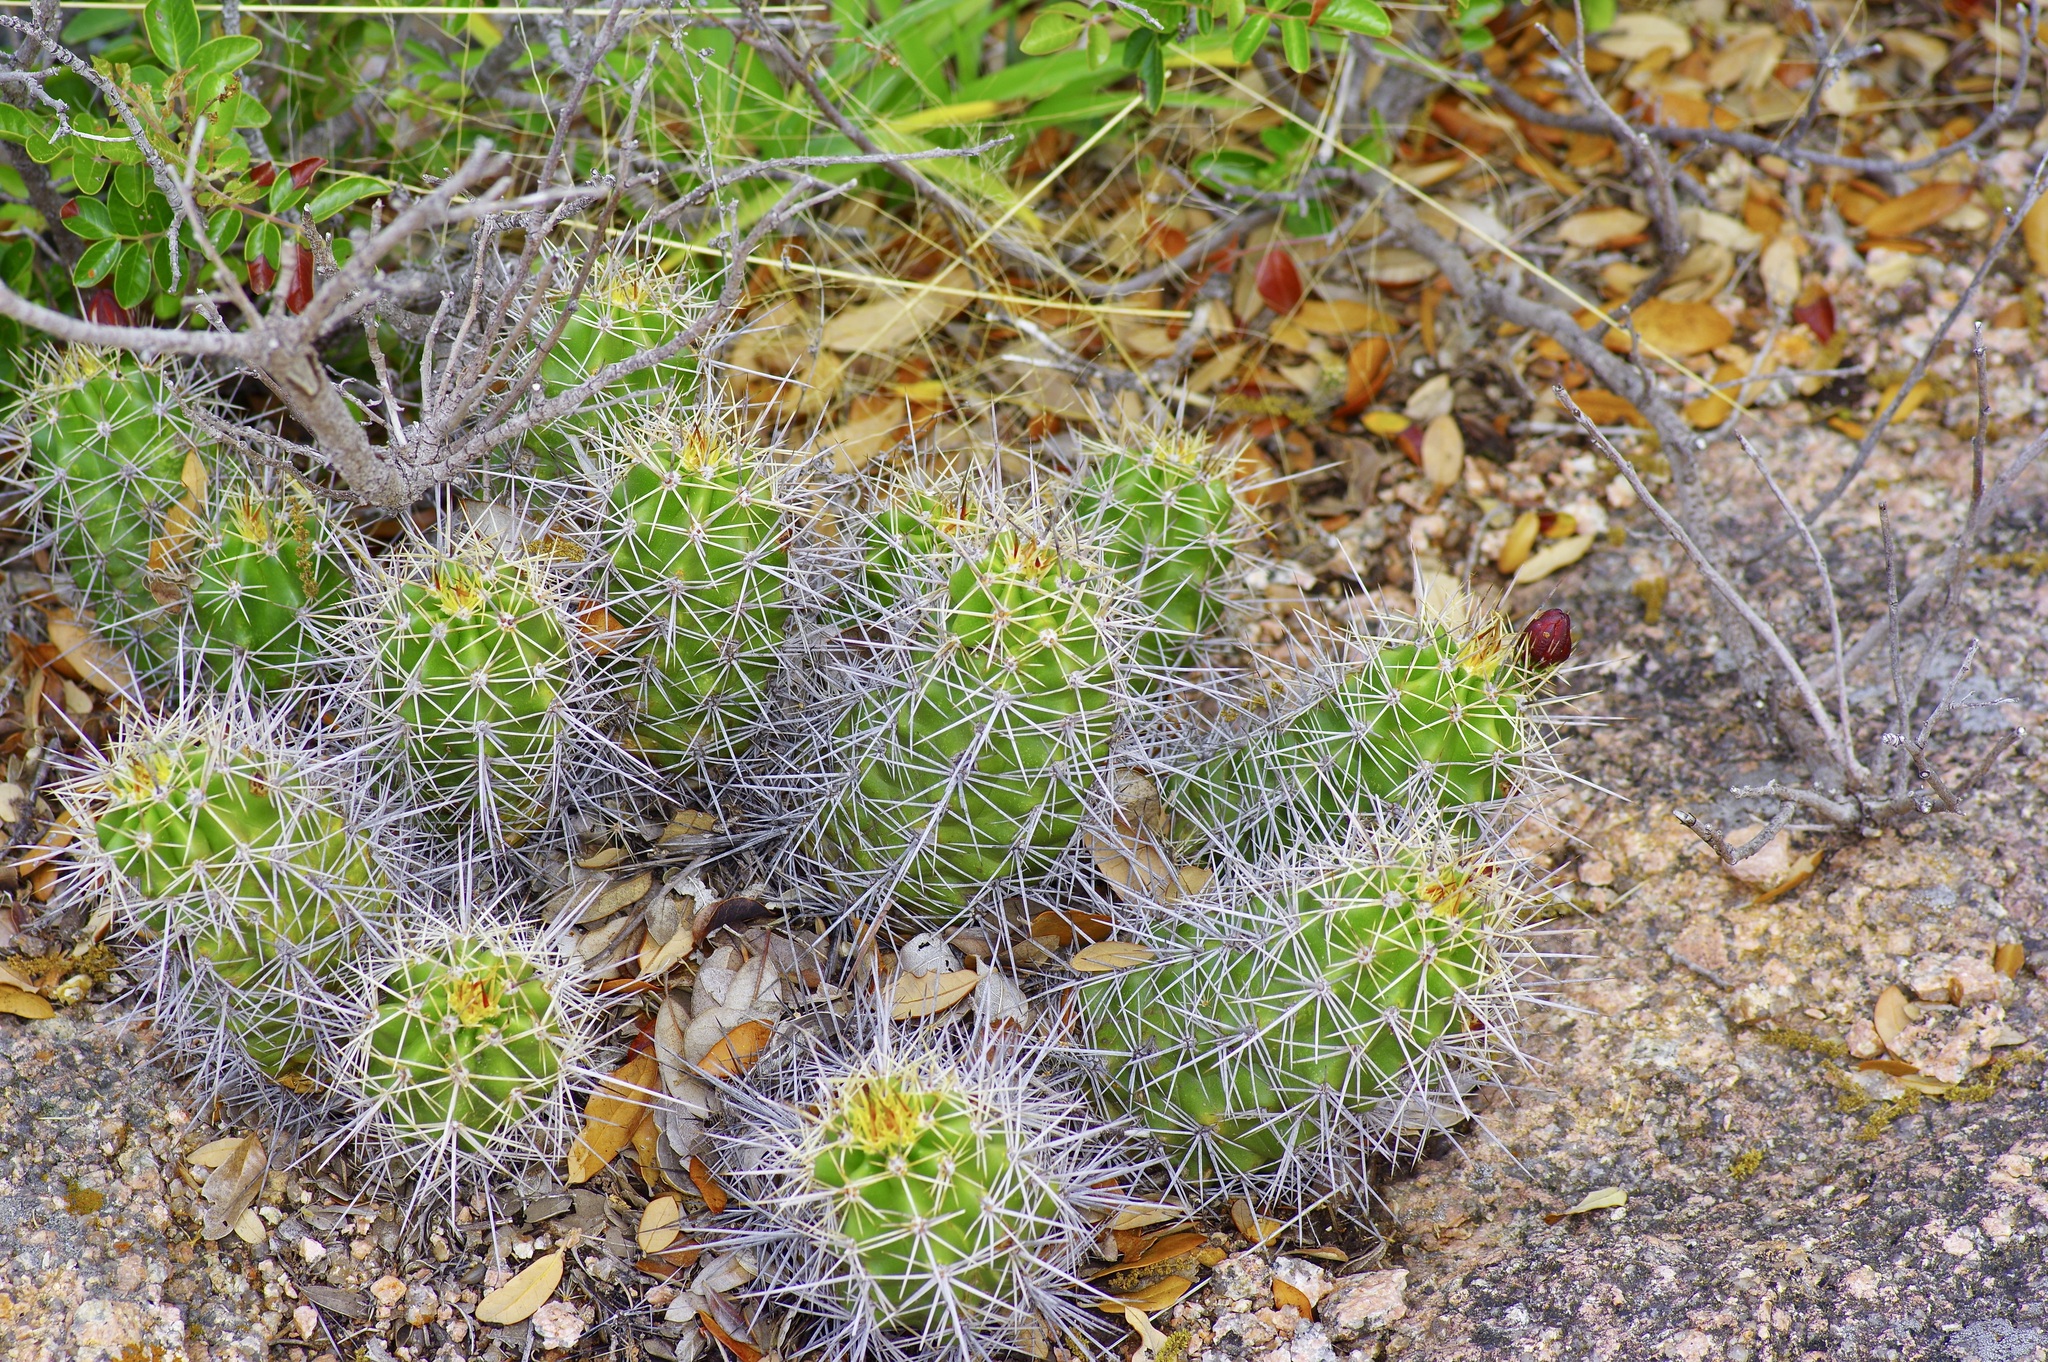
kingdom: Plantae
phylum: Tracheophyta
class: Magnoliopsida
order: Caryophyllales
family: Cactaceae
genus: Echinocereus
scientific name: Echinocereus coccineus
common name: Scarlet hedgehog cactus
